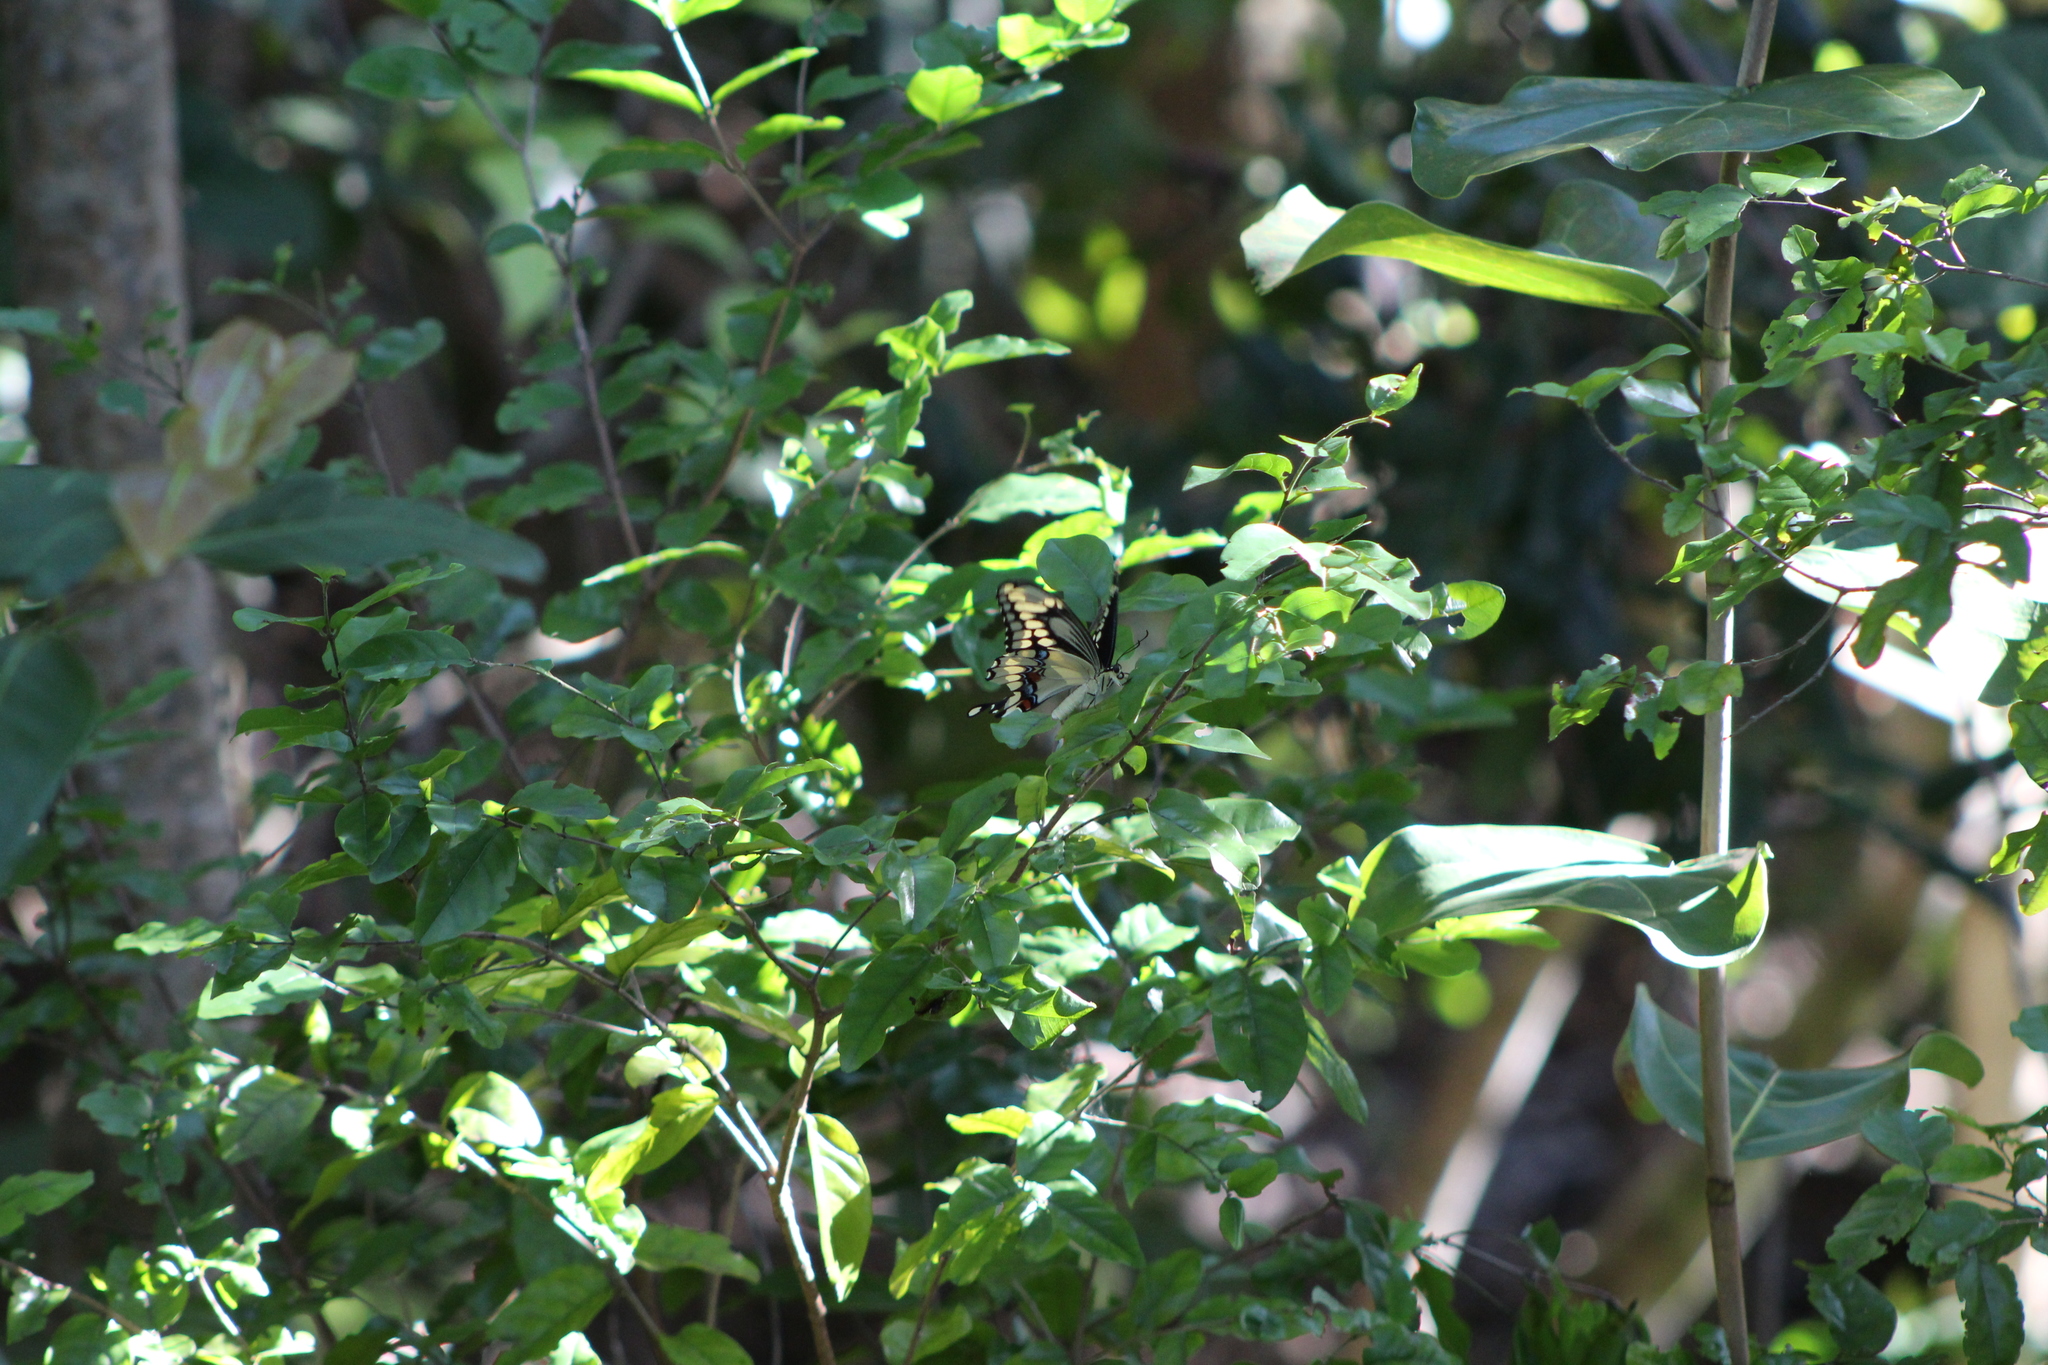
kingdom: Animalia
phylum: Arthropoda
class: Insecta
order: Lepidoptera
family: Papilionidae
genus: Papilio
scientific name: Papilio cresphontes
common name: Giant swallowtail
